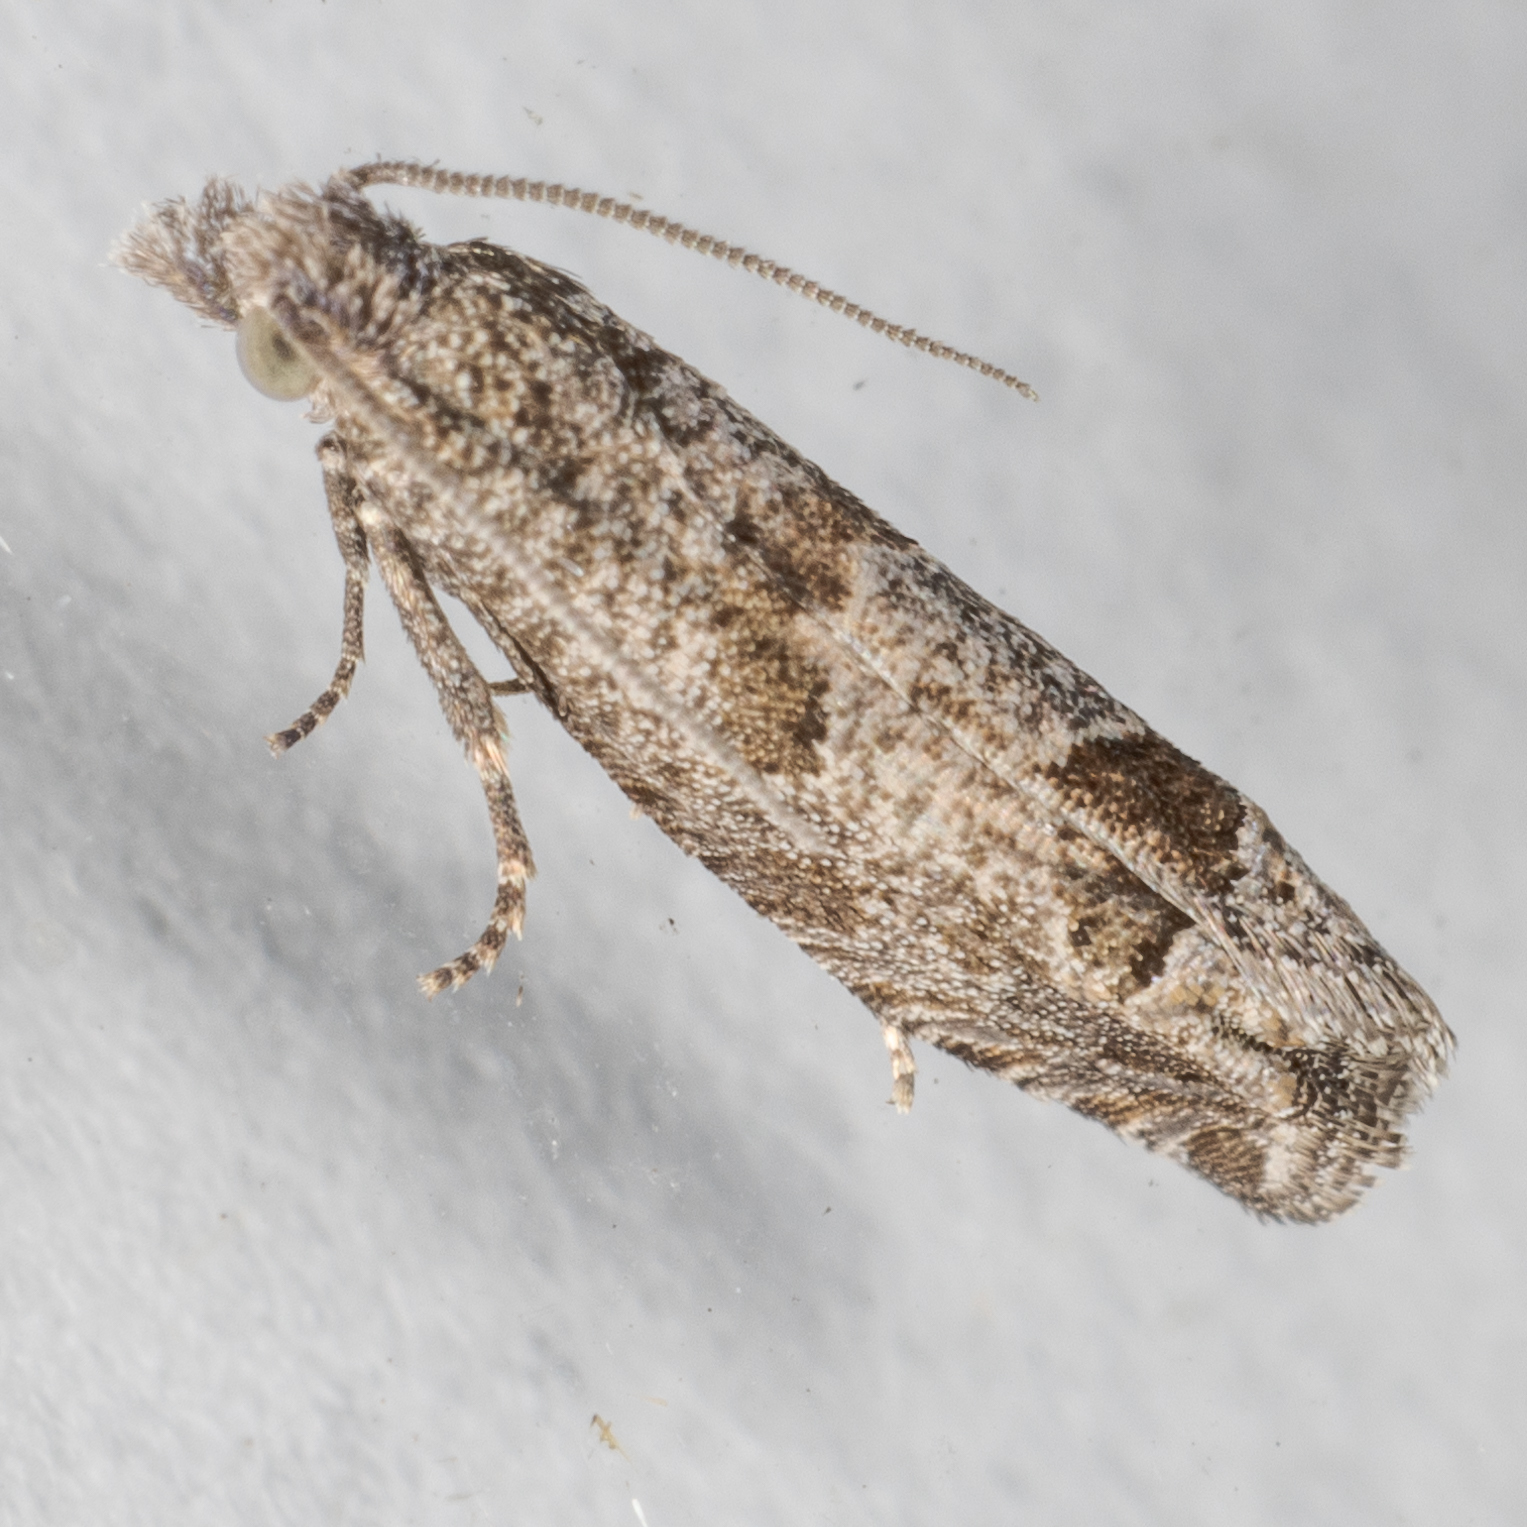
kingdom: Animalia
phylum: Arthropoda
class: Insecta
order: Lepidoptera
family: Tortricidae
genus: Pelochrista
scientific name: Pelochrista consobrinana
